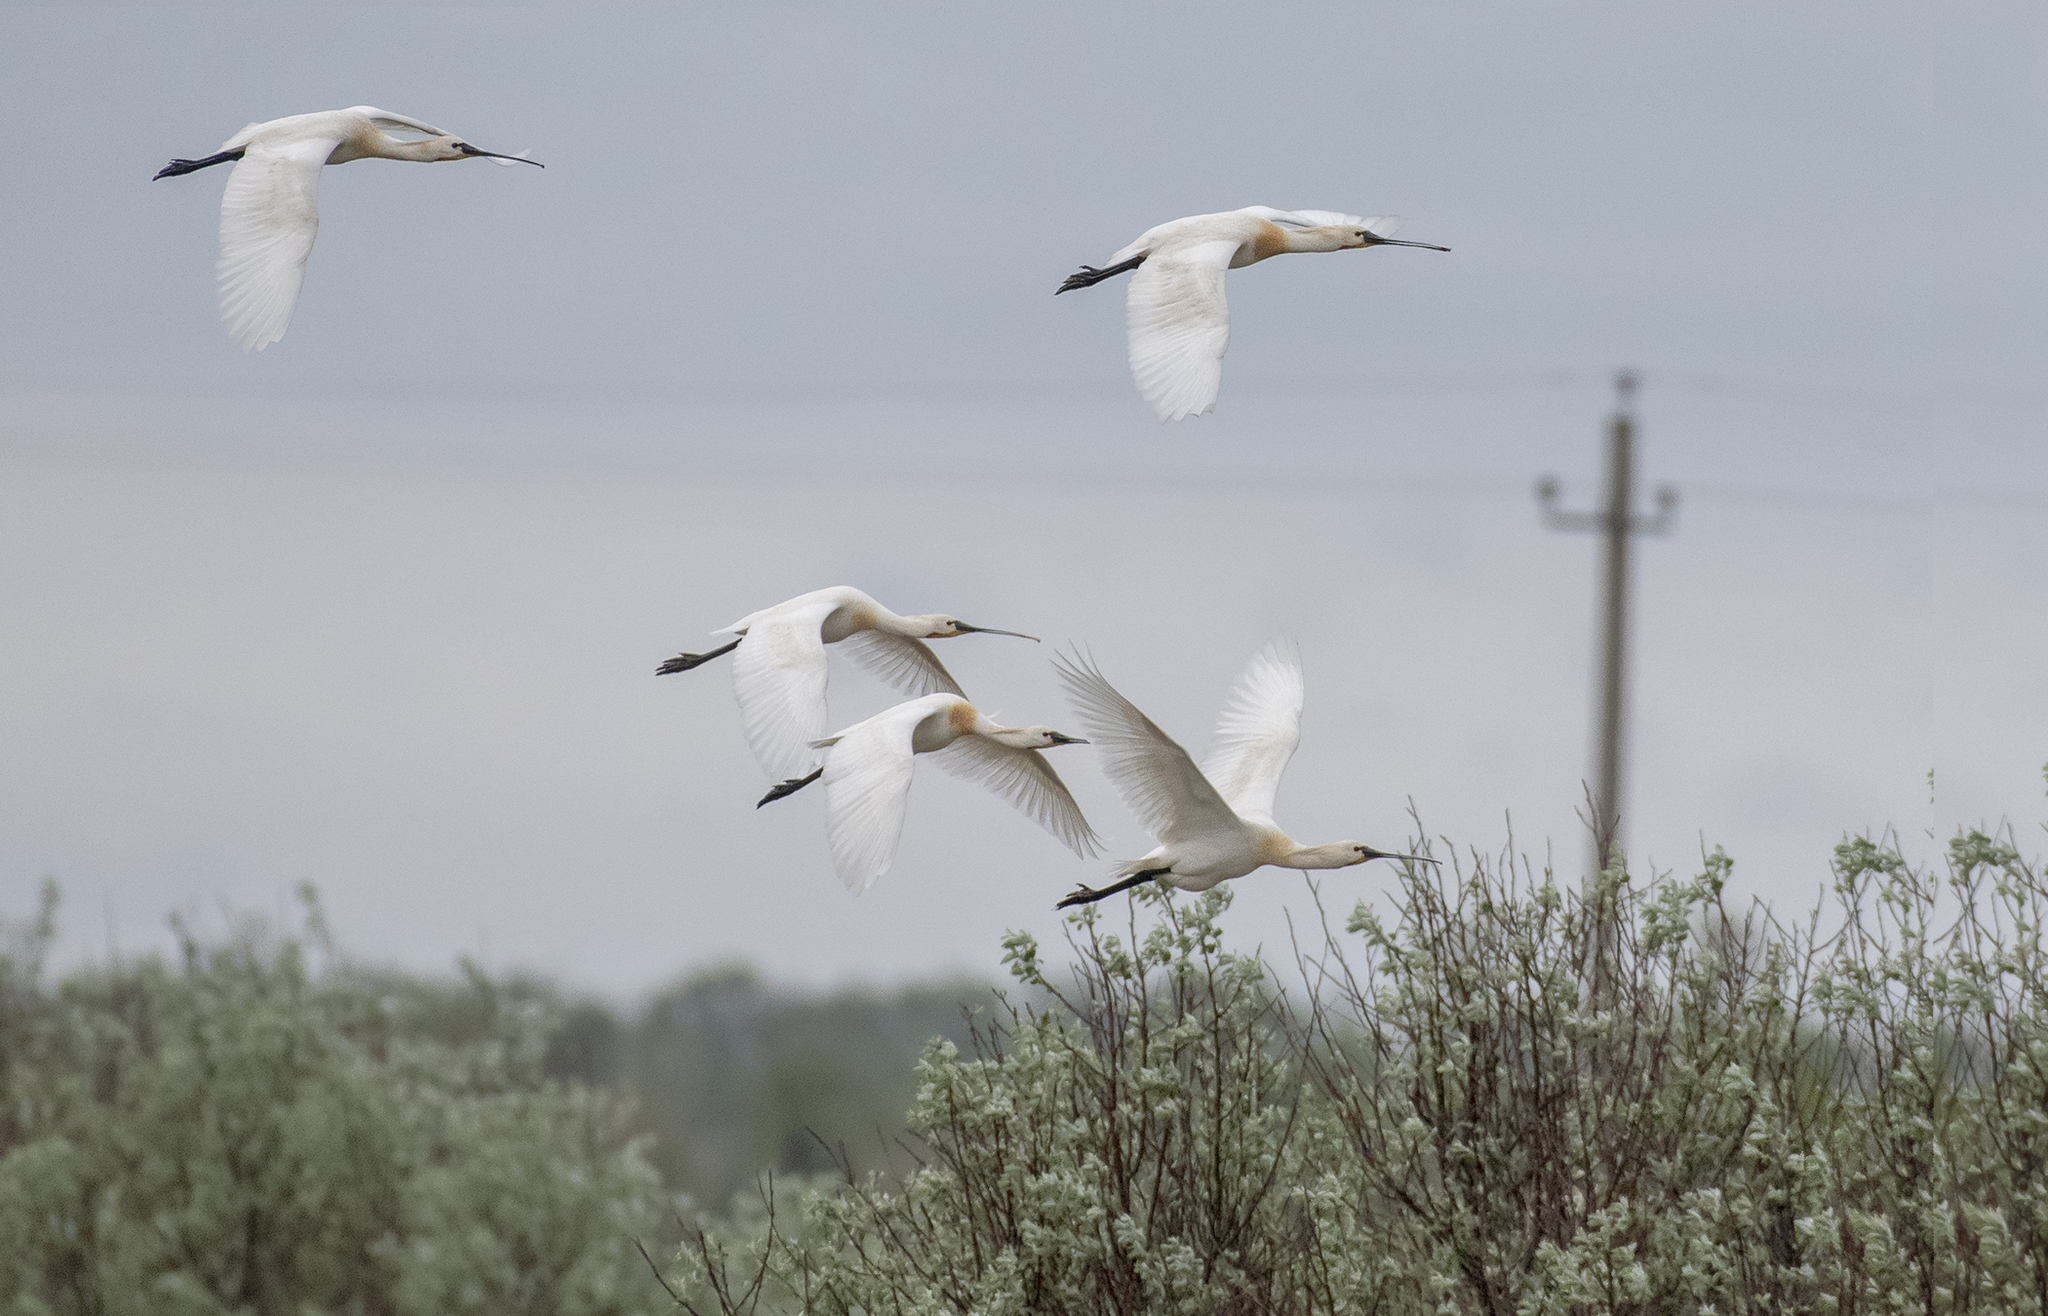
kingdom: Animalia
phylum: Chordata
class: Aves
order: Pelecaniformes
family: Threskiornithidae
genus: Platalea
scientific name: Platalea leucorodia
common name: Eurasian spoonbill
